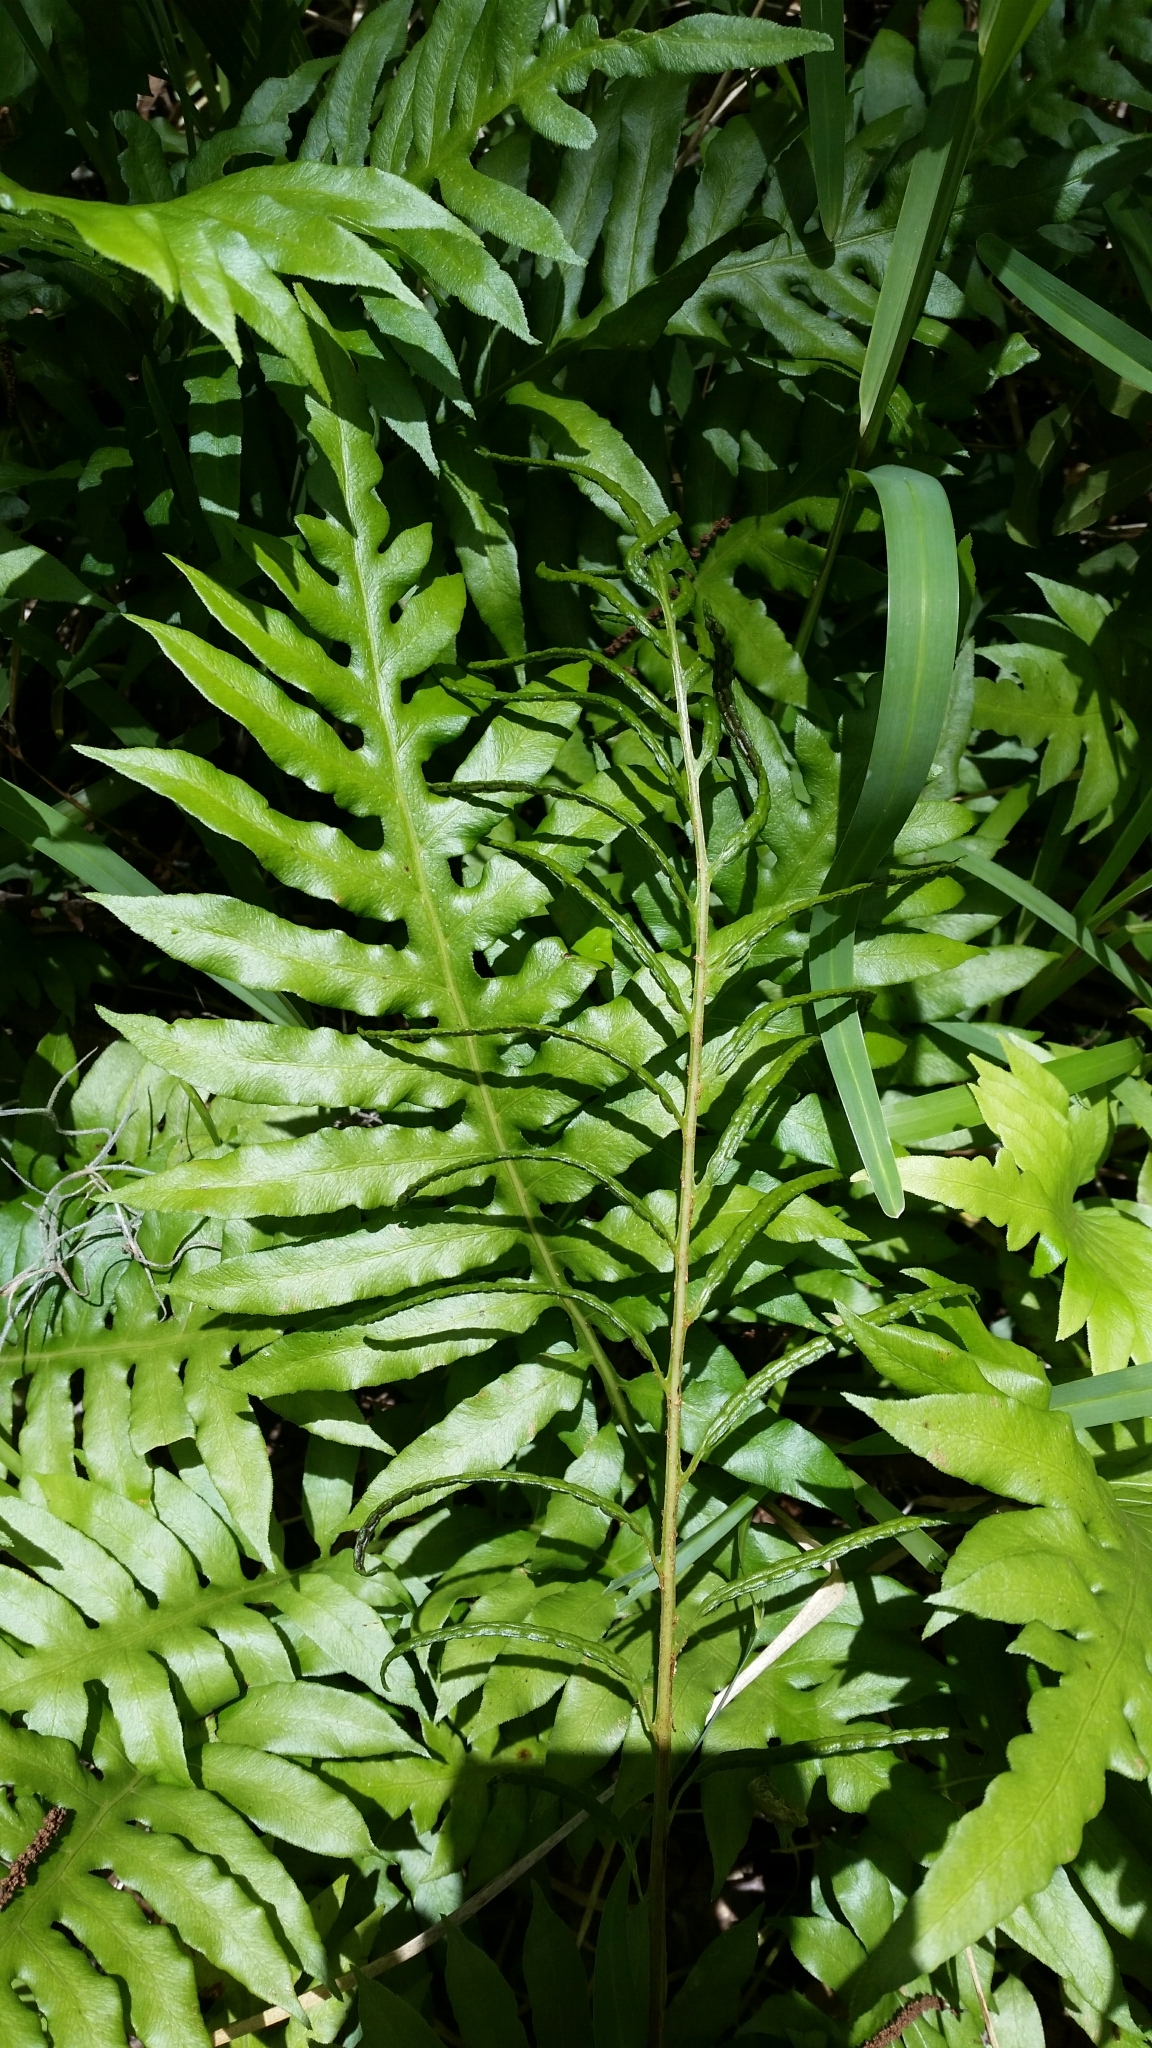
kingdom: Plantae
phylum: Tracheophyta
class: Polypodiopsida
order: Polypodiales
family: Blechnaceae
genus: Lorinseria
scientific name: Lorinseria areolata
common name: Dwarf chain fern
